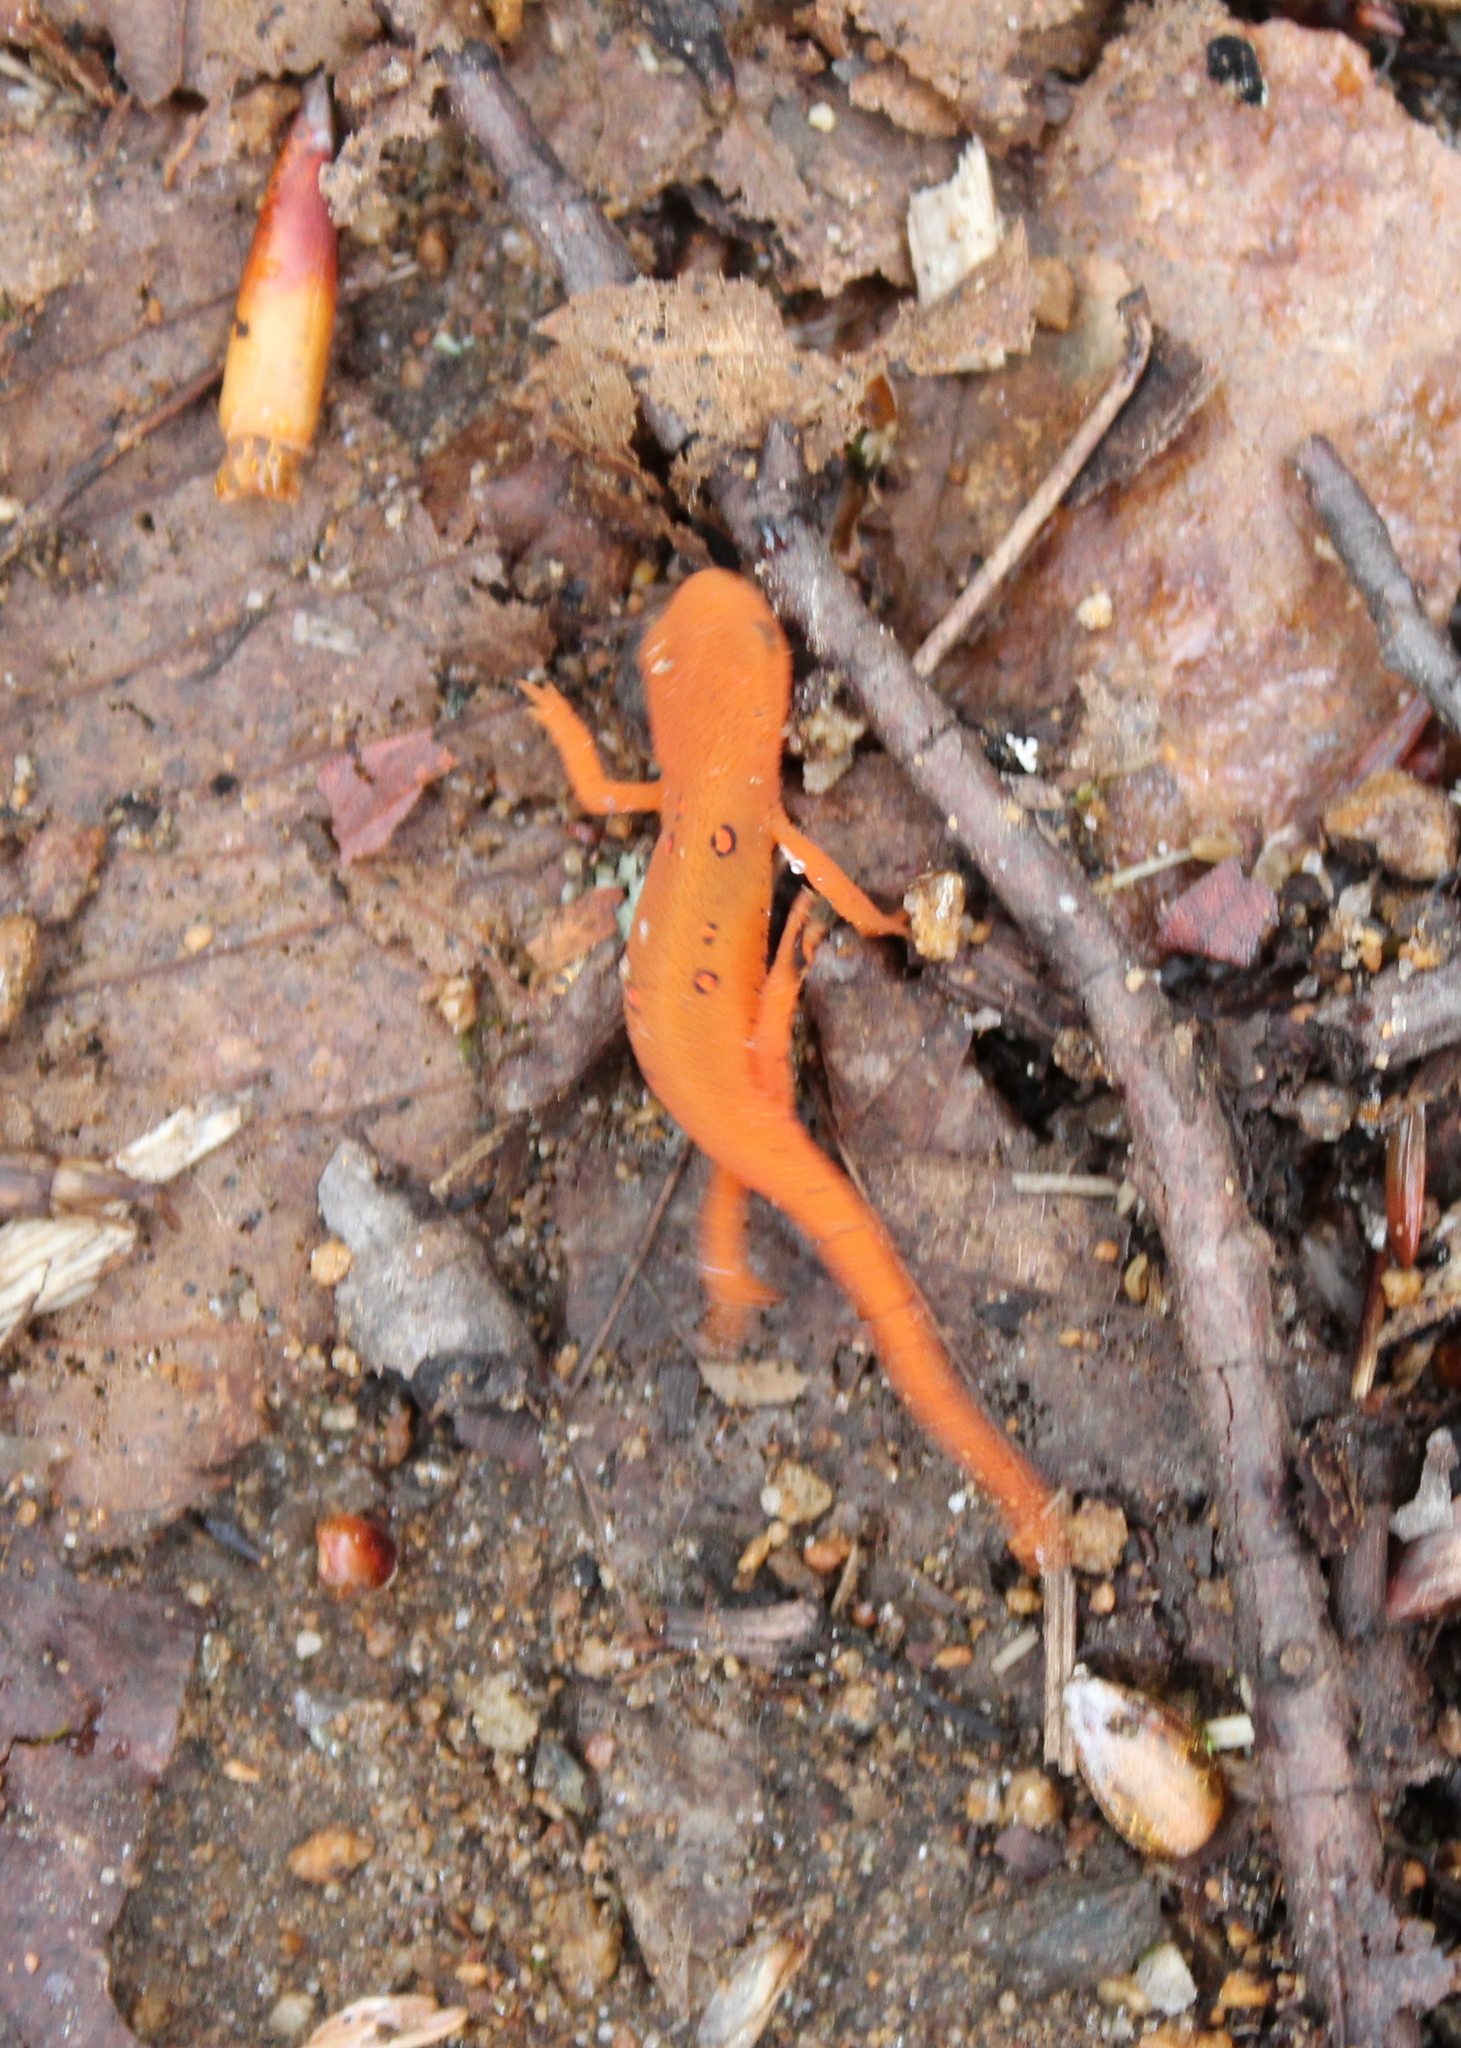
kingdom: Animalia
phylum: Chordata
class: Amphibia
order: Caudata
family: Salamandridae
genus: Notophthalmus
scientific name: Notophthalmus viridescens
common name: Eastern newt
